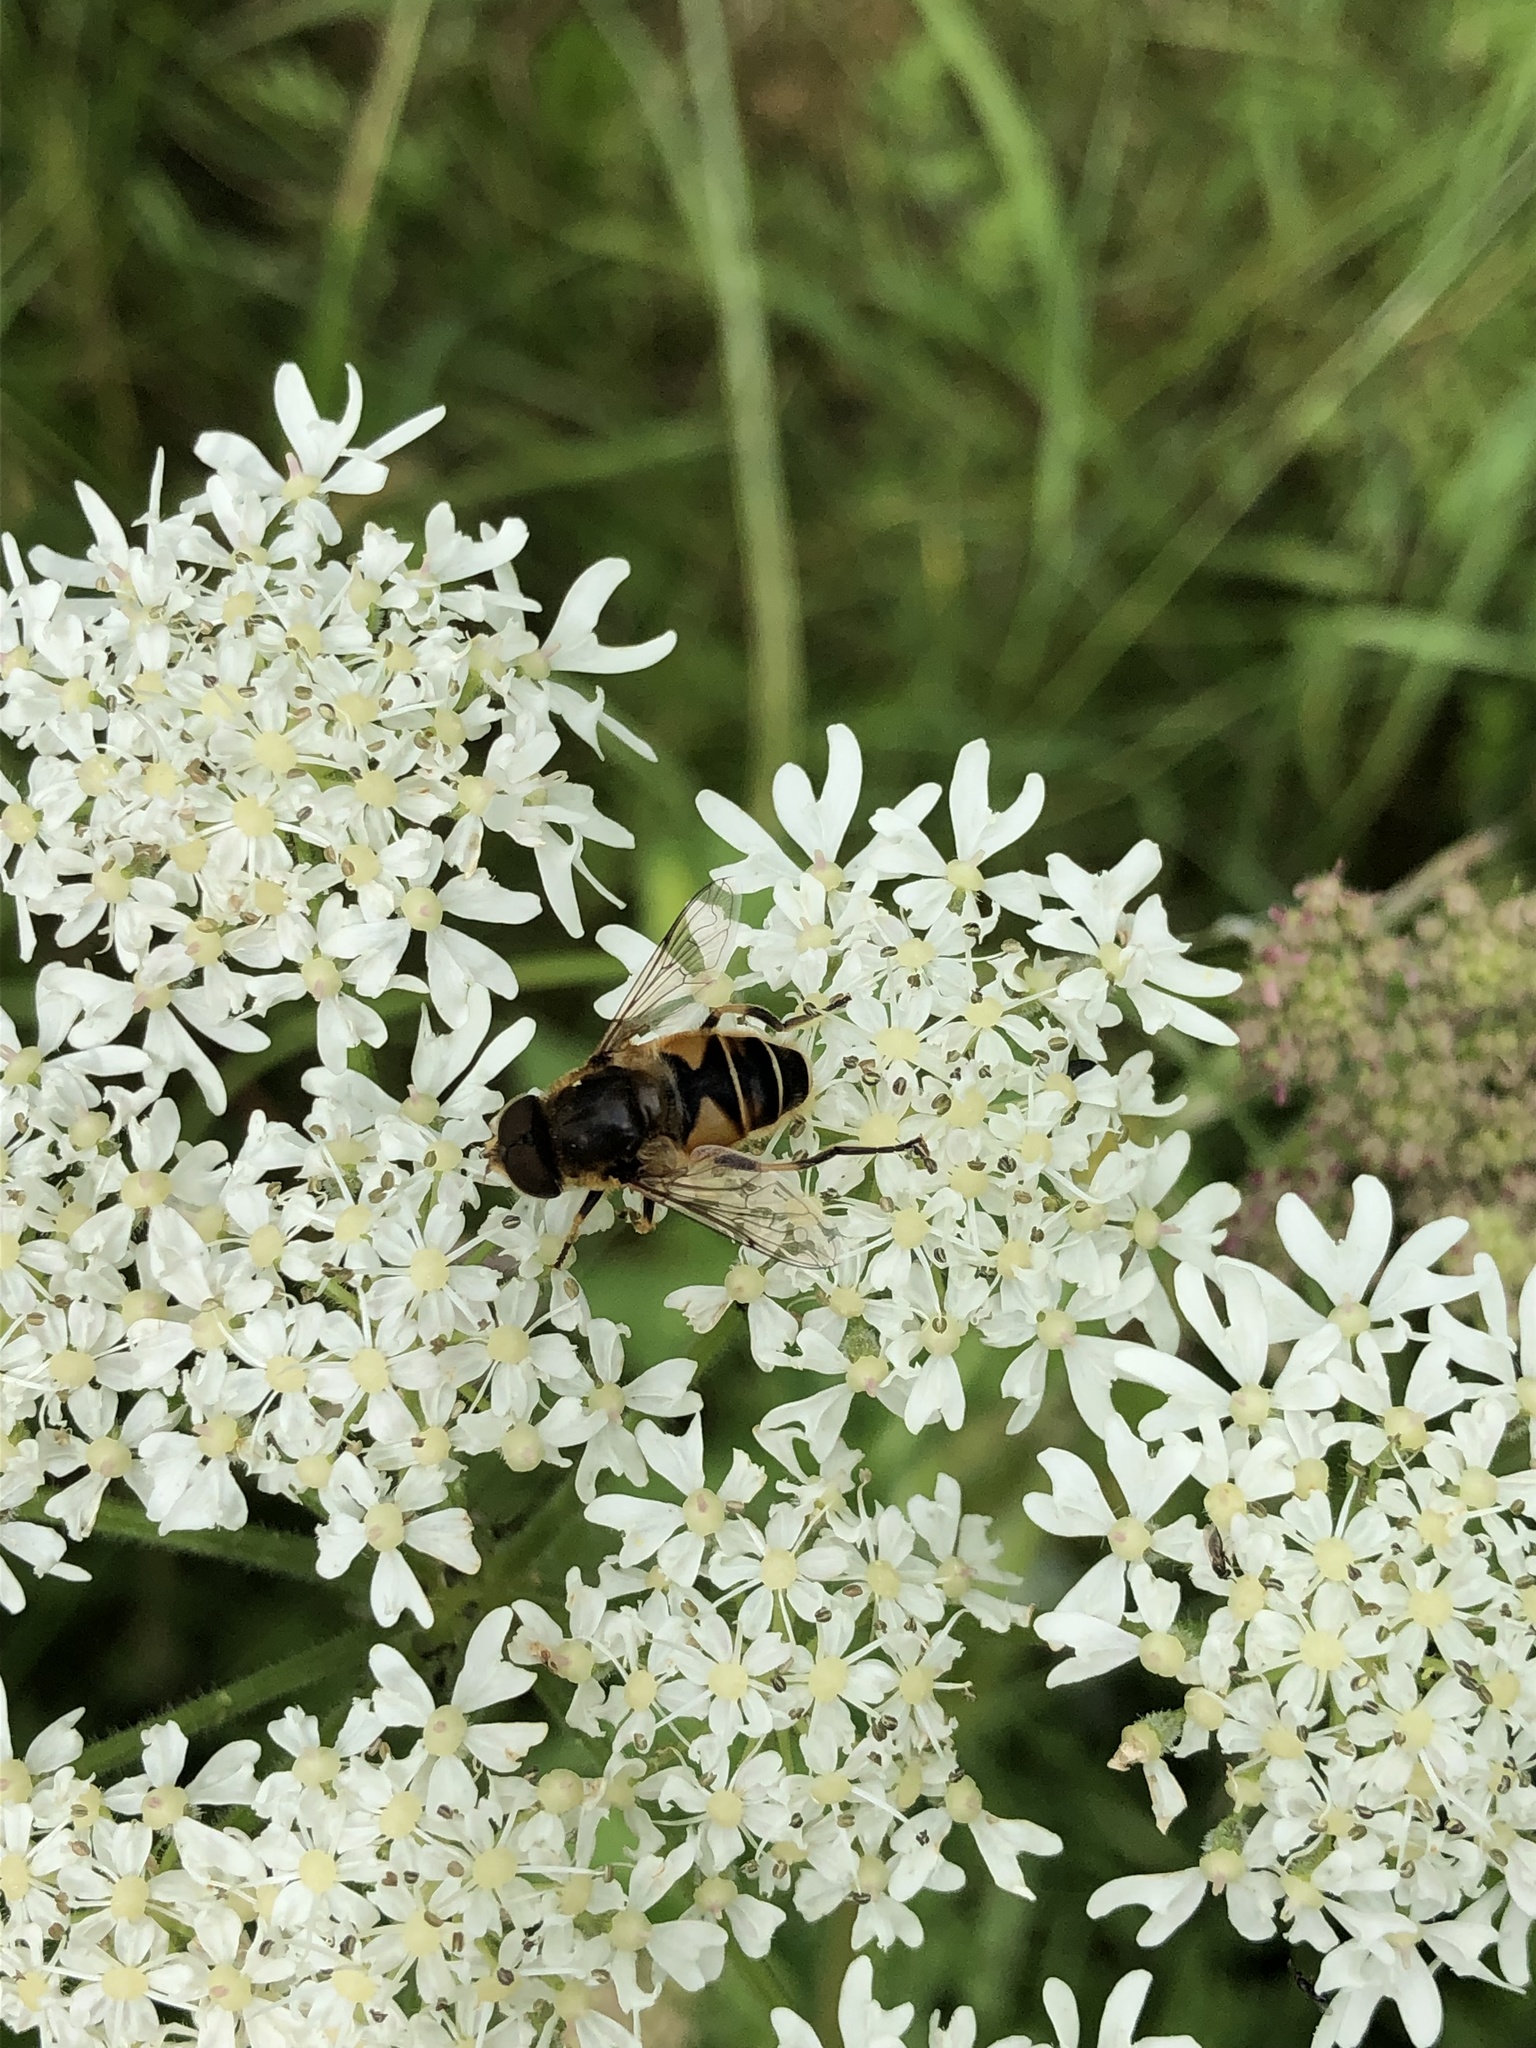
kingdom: Plantae
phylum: Tracheophyta
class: Magnoliopsida
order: Apiales
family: Apiaceae
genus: Heracleum
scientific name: Heracleum sphondylium
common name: Hogweed
